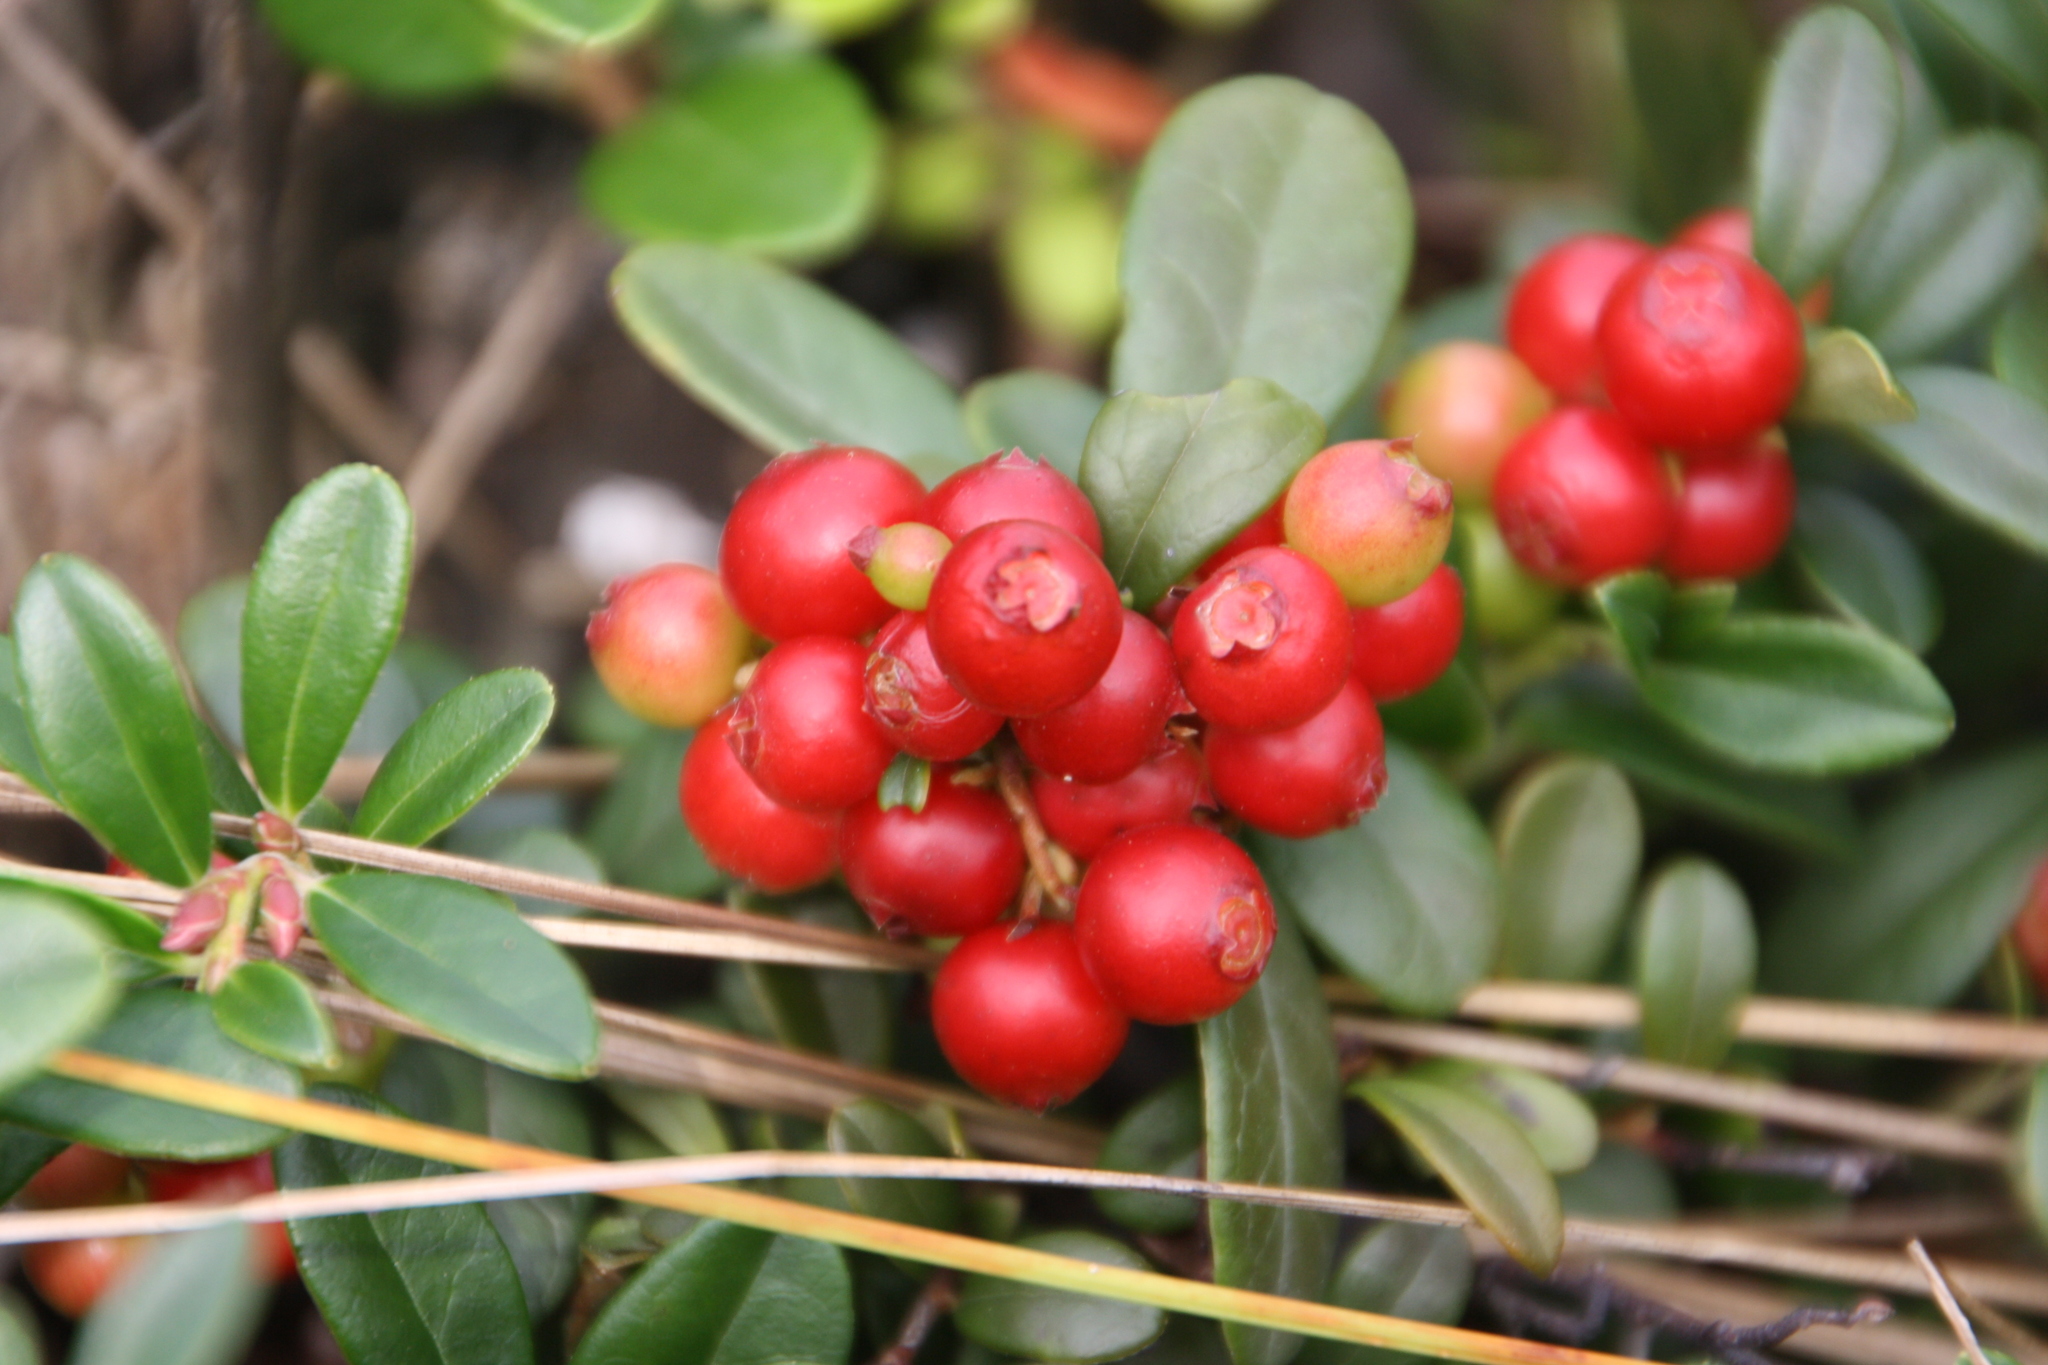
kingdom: Plantae
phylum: Tracheophyta
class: Magnoliopsida
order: Ericales
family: Ericaceae
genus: Vaccinium
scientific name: Vaccinium vitis-idaea
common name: Cowberry
